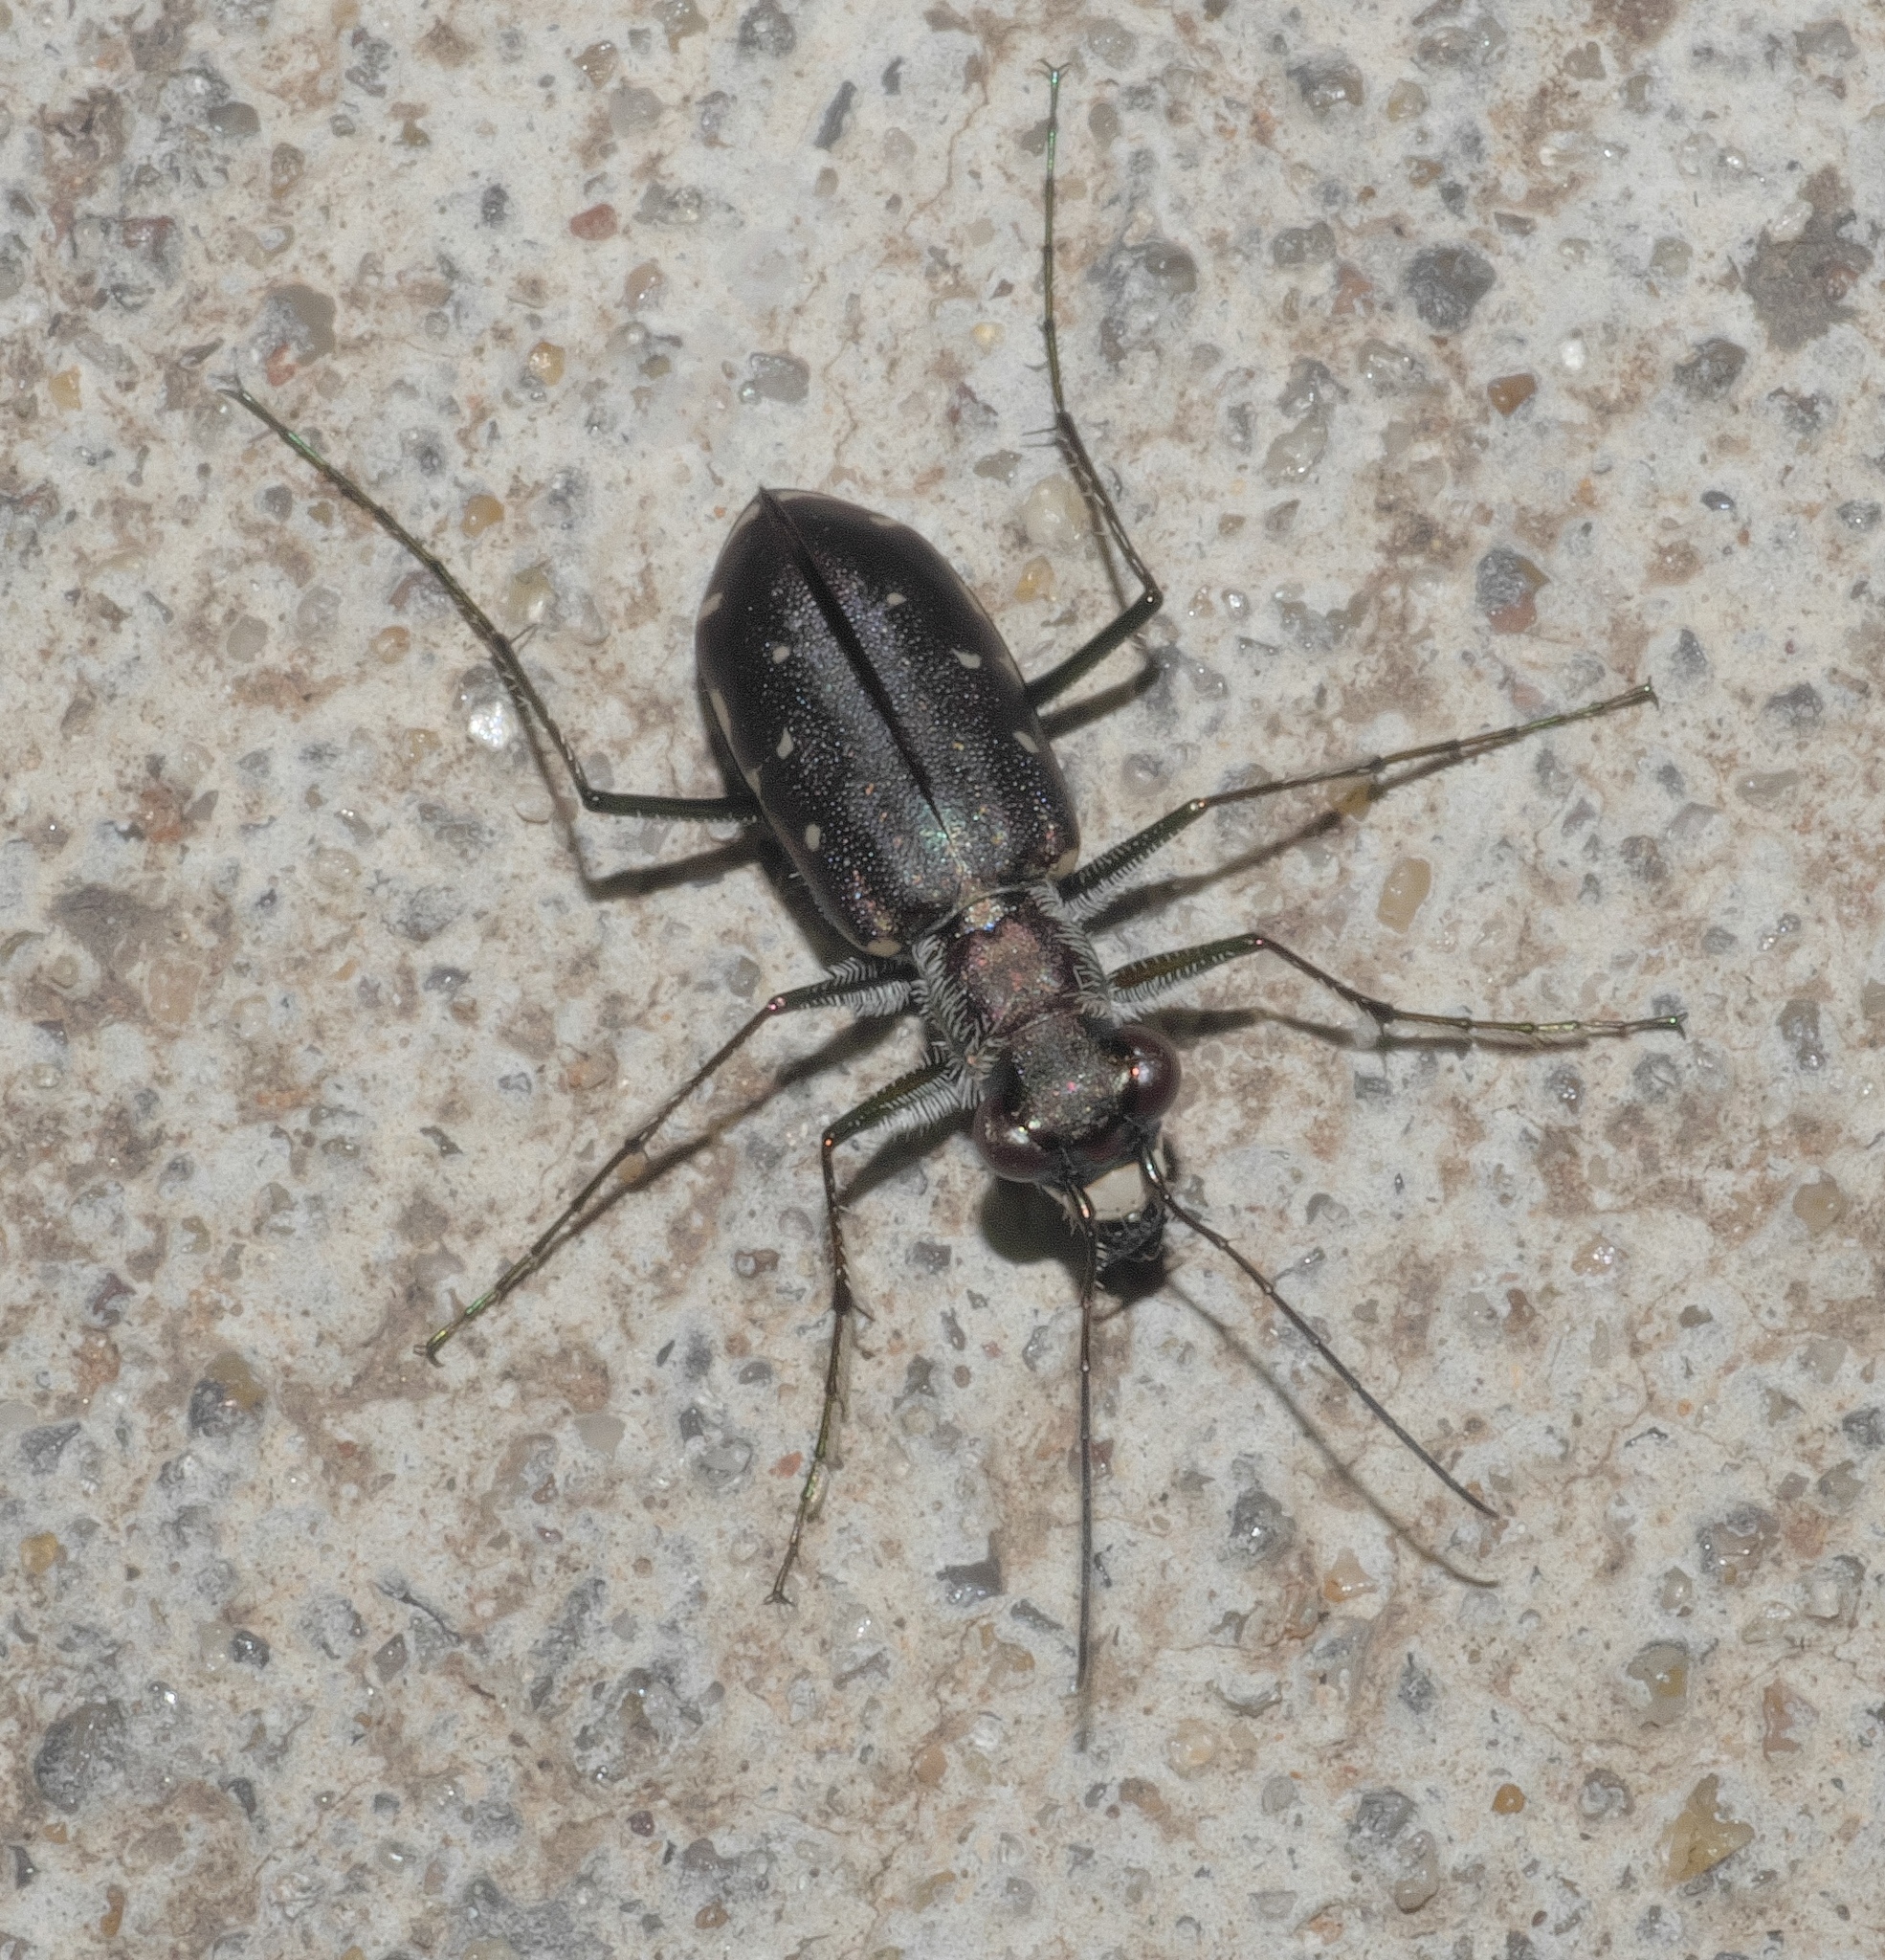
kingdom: Animalia
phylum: Arthropoda
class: Insecta
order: Coleoptera
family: Carabidae
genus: Cicindela
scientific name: Cicindela punctulata
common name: Punctured tiger beetle
